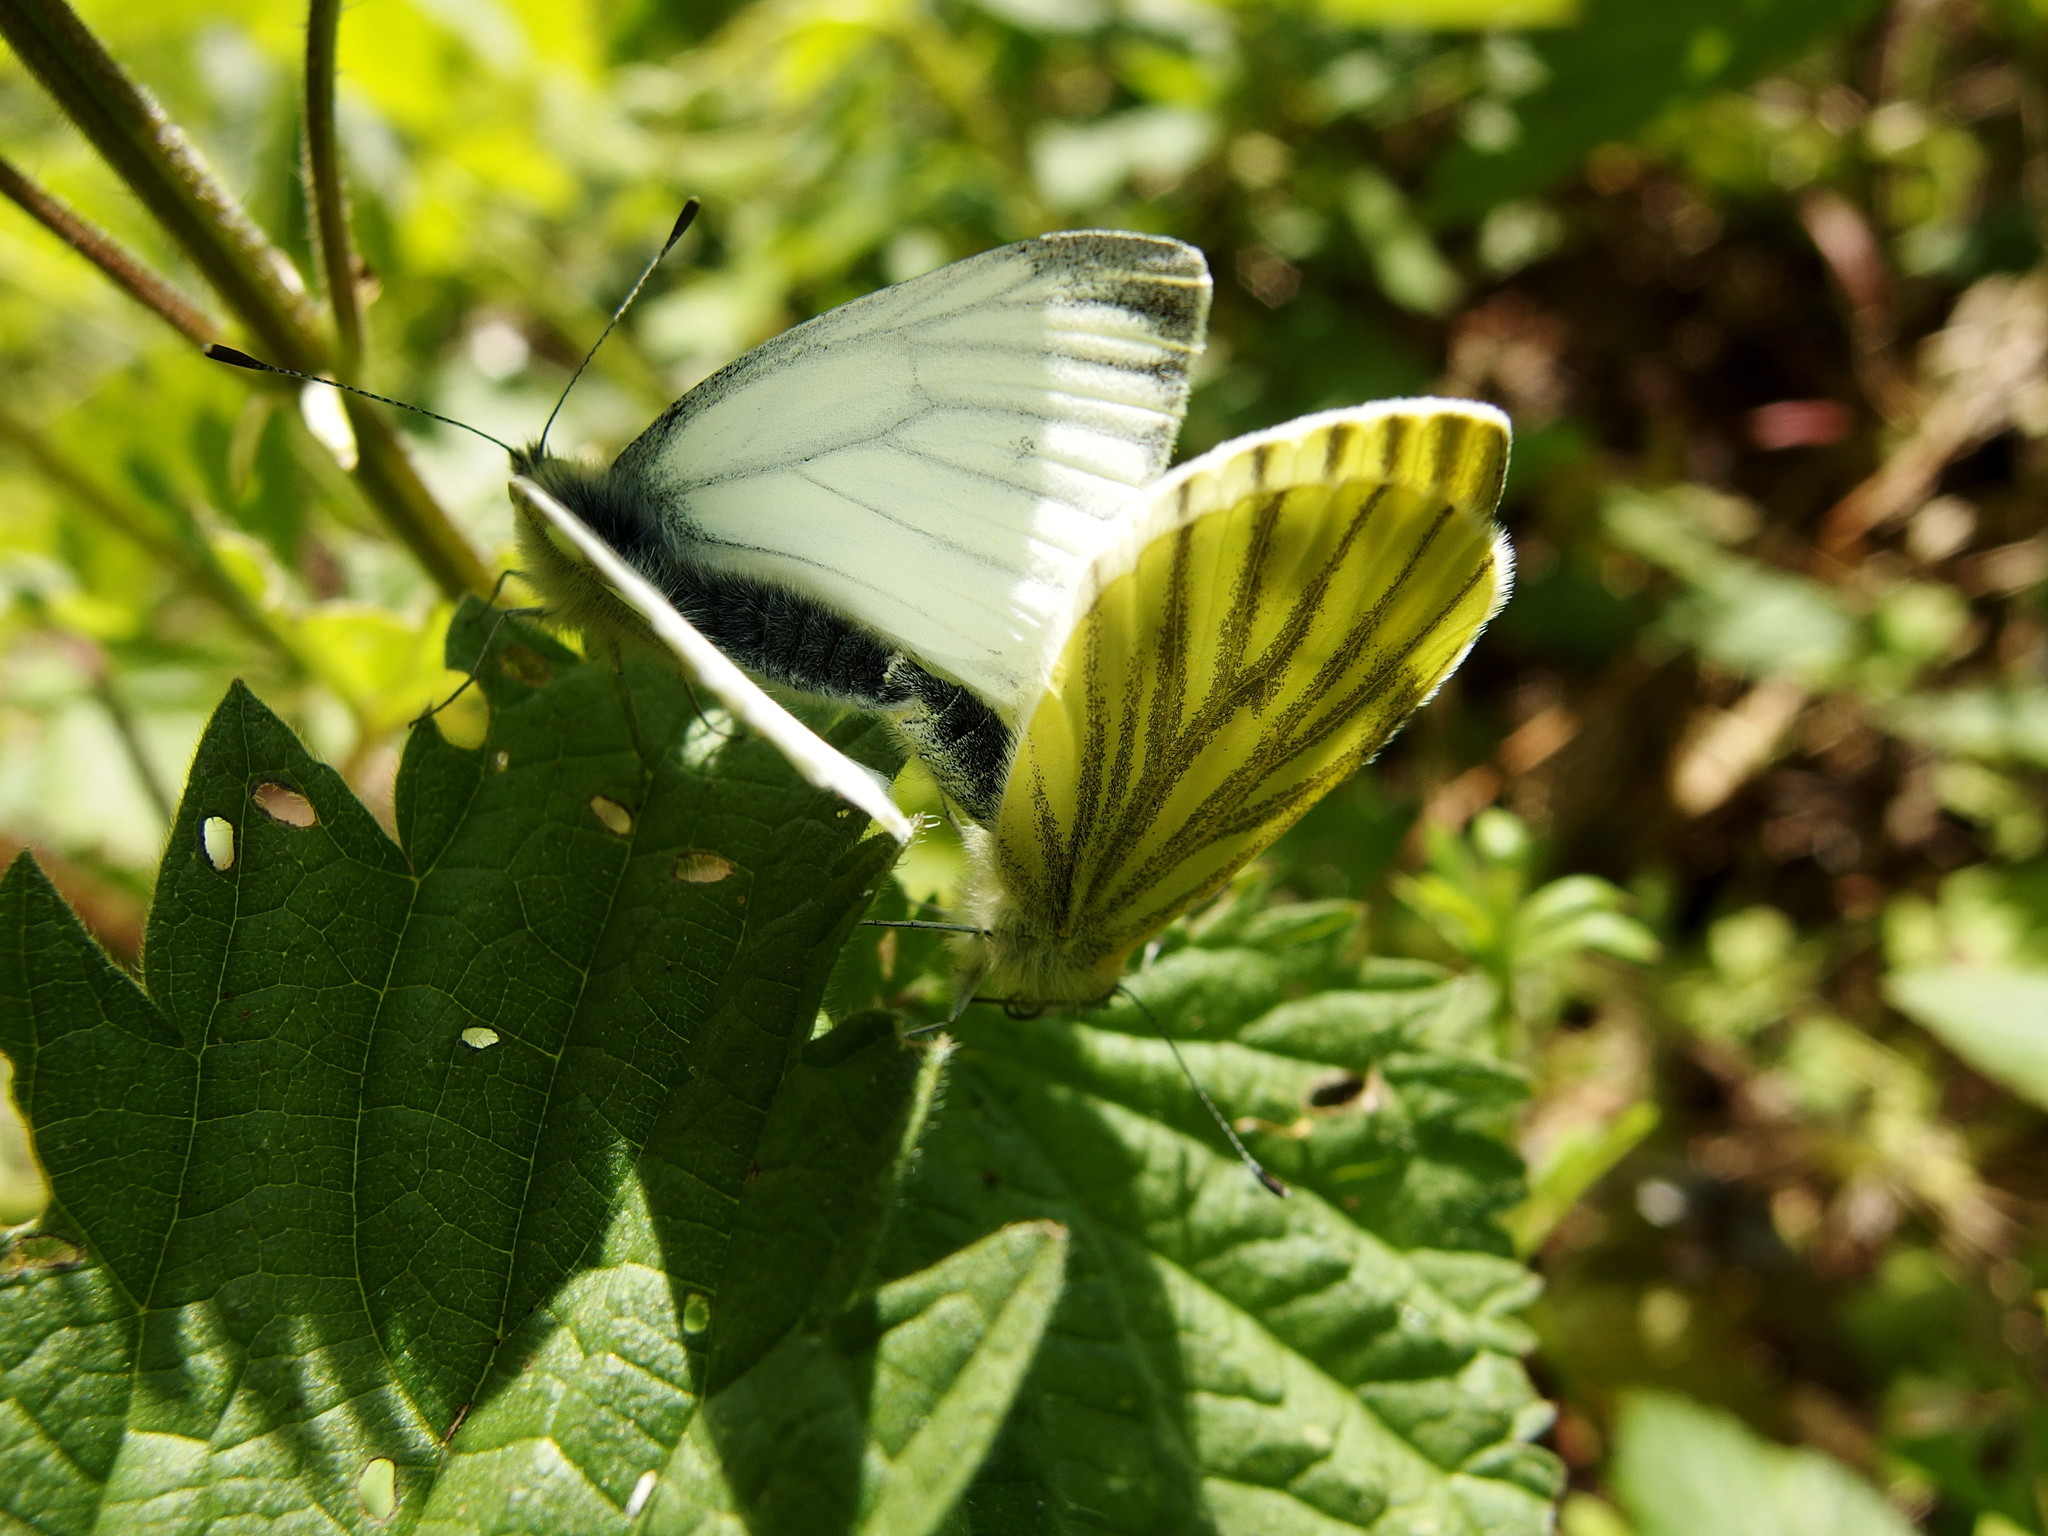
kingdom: Animalia
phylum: Arthropoda
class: Insecta
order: Lepidoptera
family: Pieridae
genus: Pieris
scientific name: Pieris napi
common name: Green-veined white
